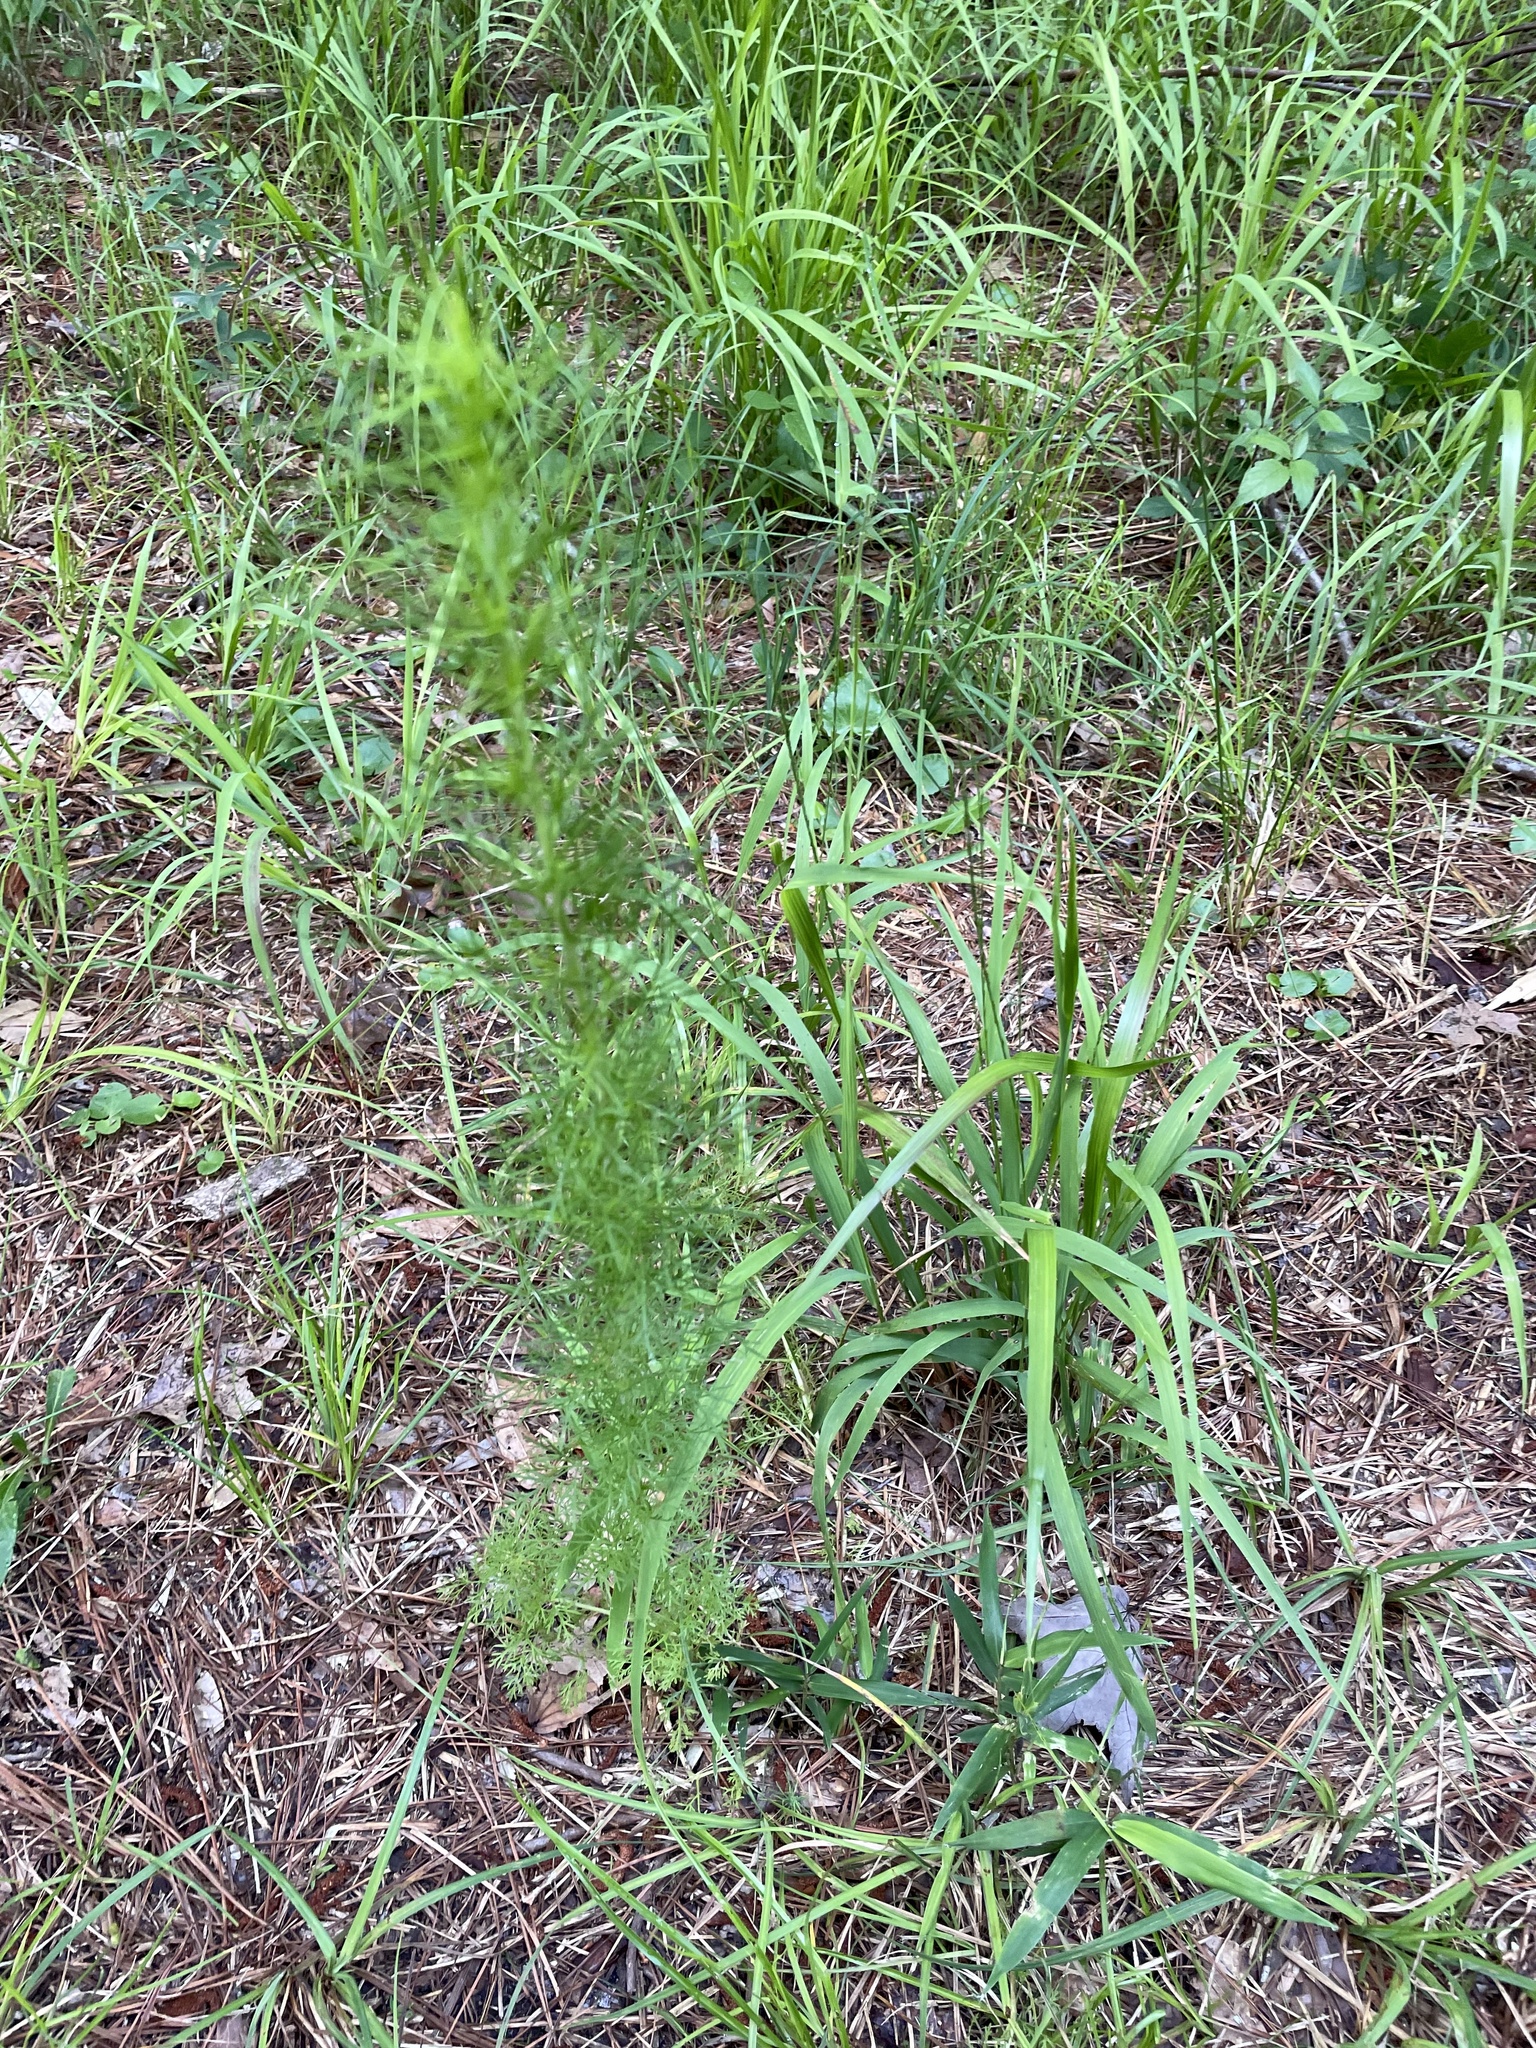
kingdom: Plantae
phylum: Tracheophyta
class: Magnoliopsida
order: Asterales
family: Asteraceae
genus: Eupatorium
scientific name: Eupatorium capillifolium
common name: Dog-fennel
